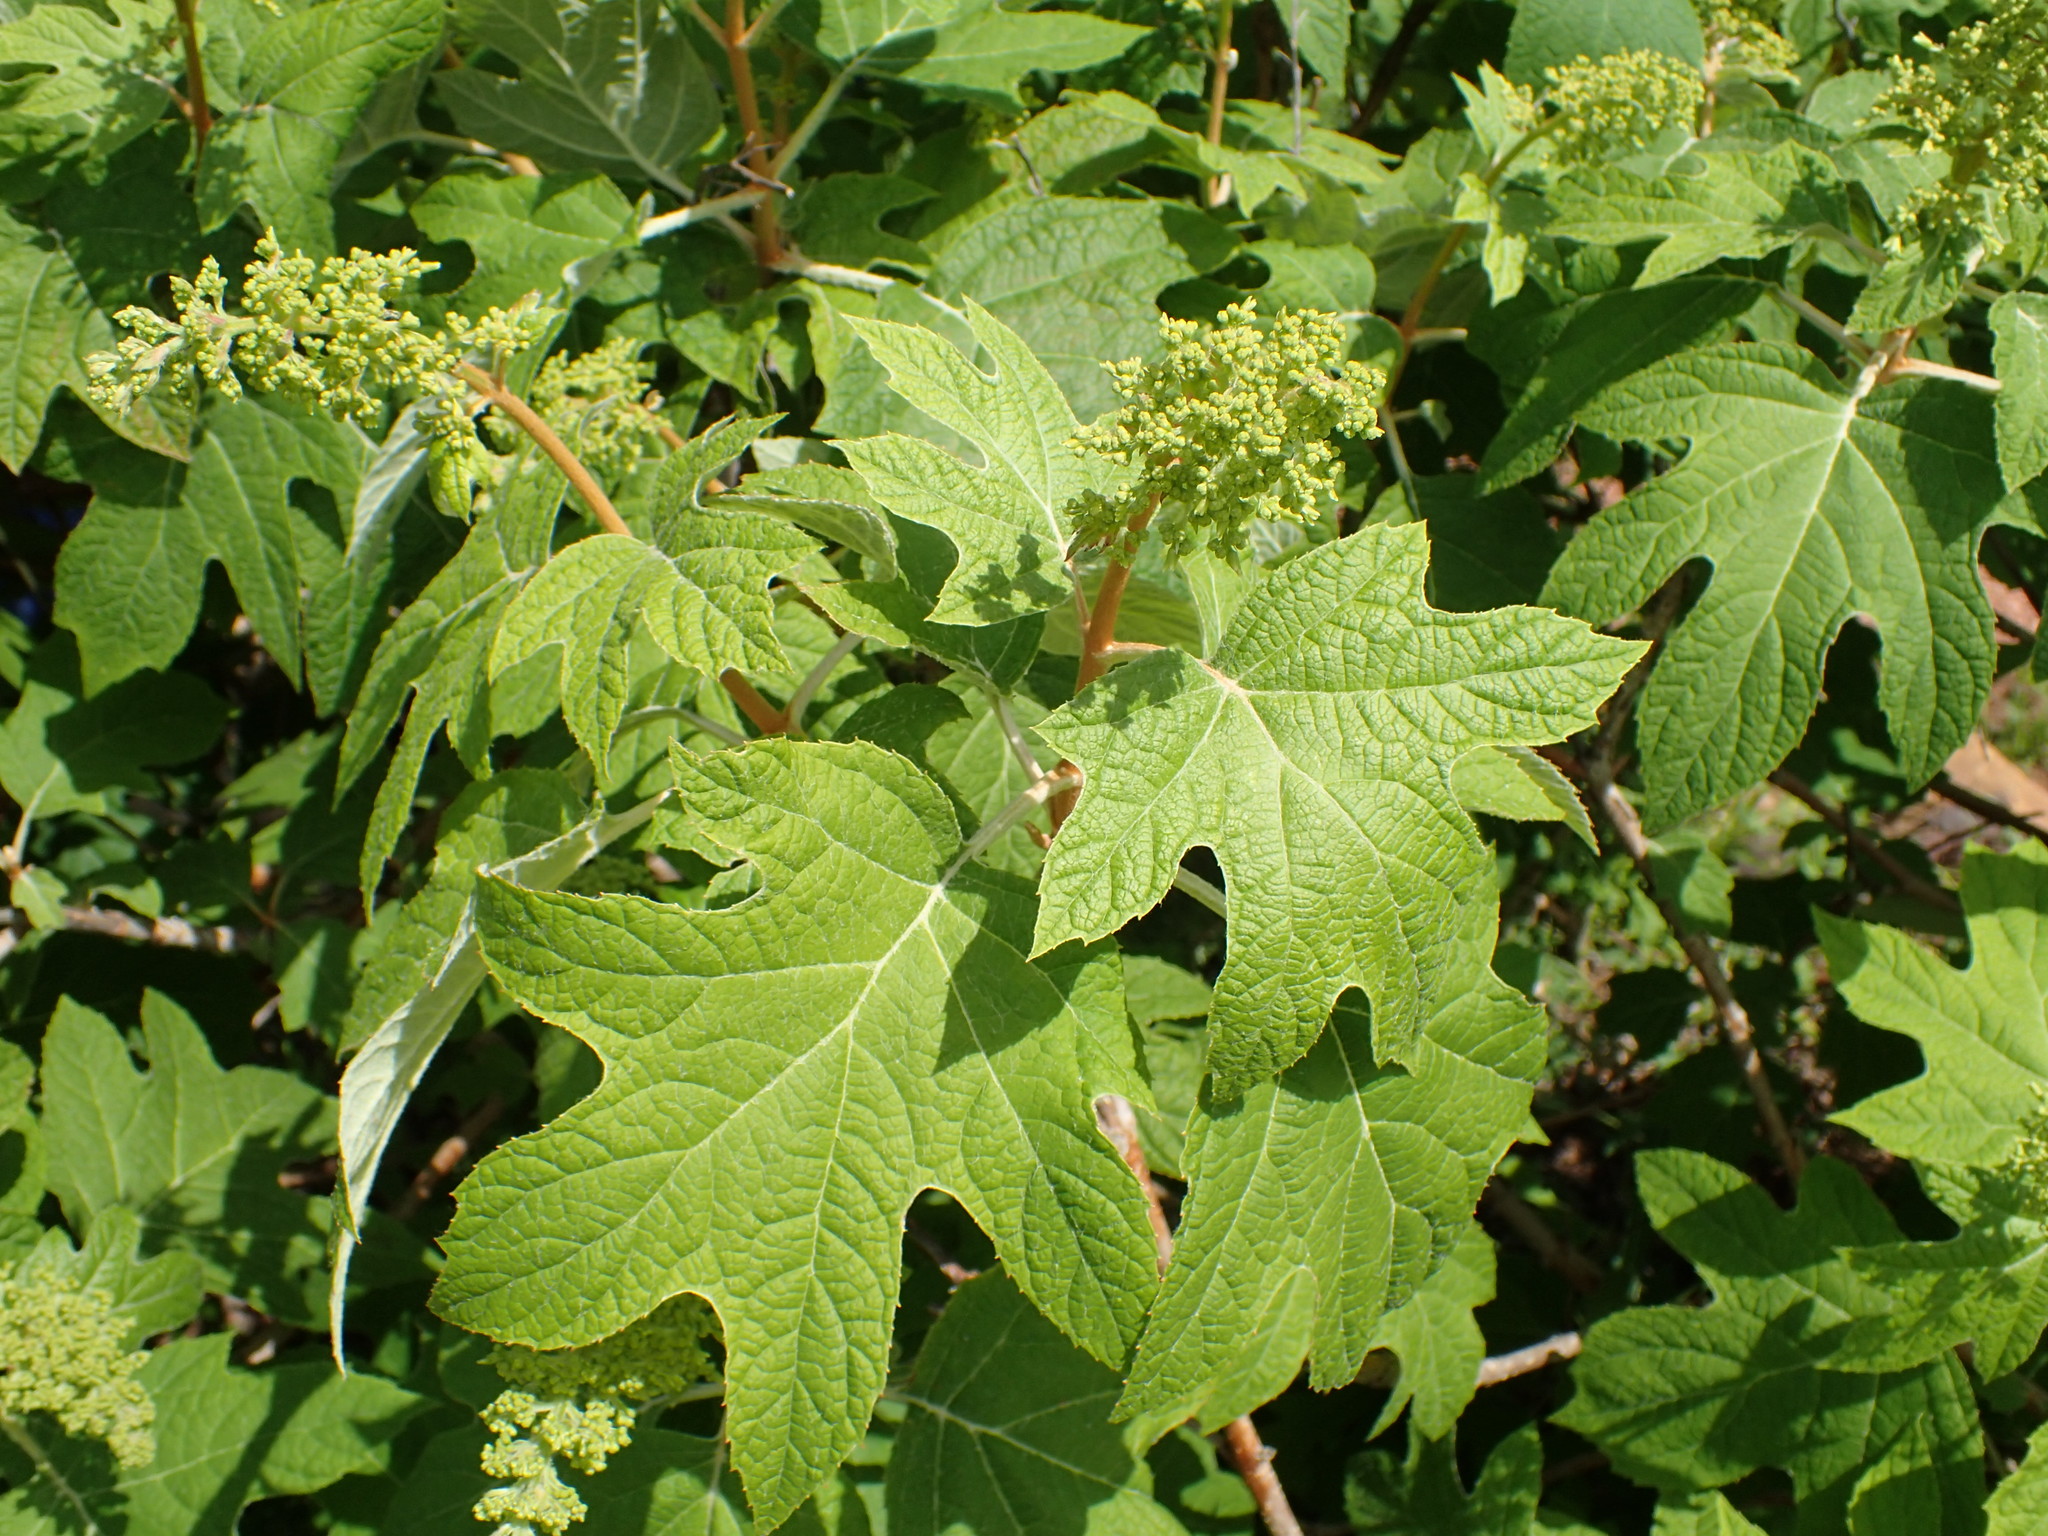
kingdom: Plantae
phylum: Tracheophyta
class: Magnoliopsida
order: Cornales
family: Hydrangeaceae
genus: Hydrangea
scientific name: Hydrangea quercifolia
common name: Oak-leaf hydrangea
